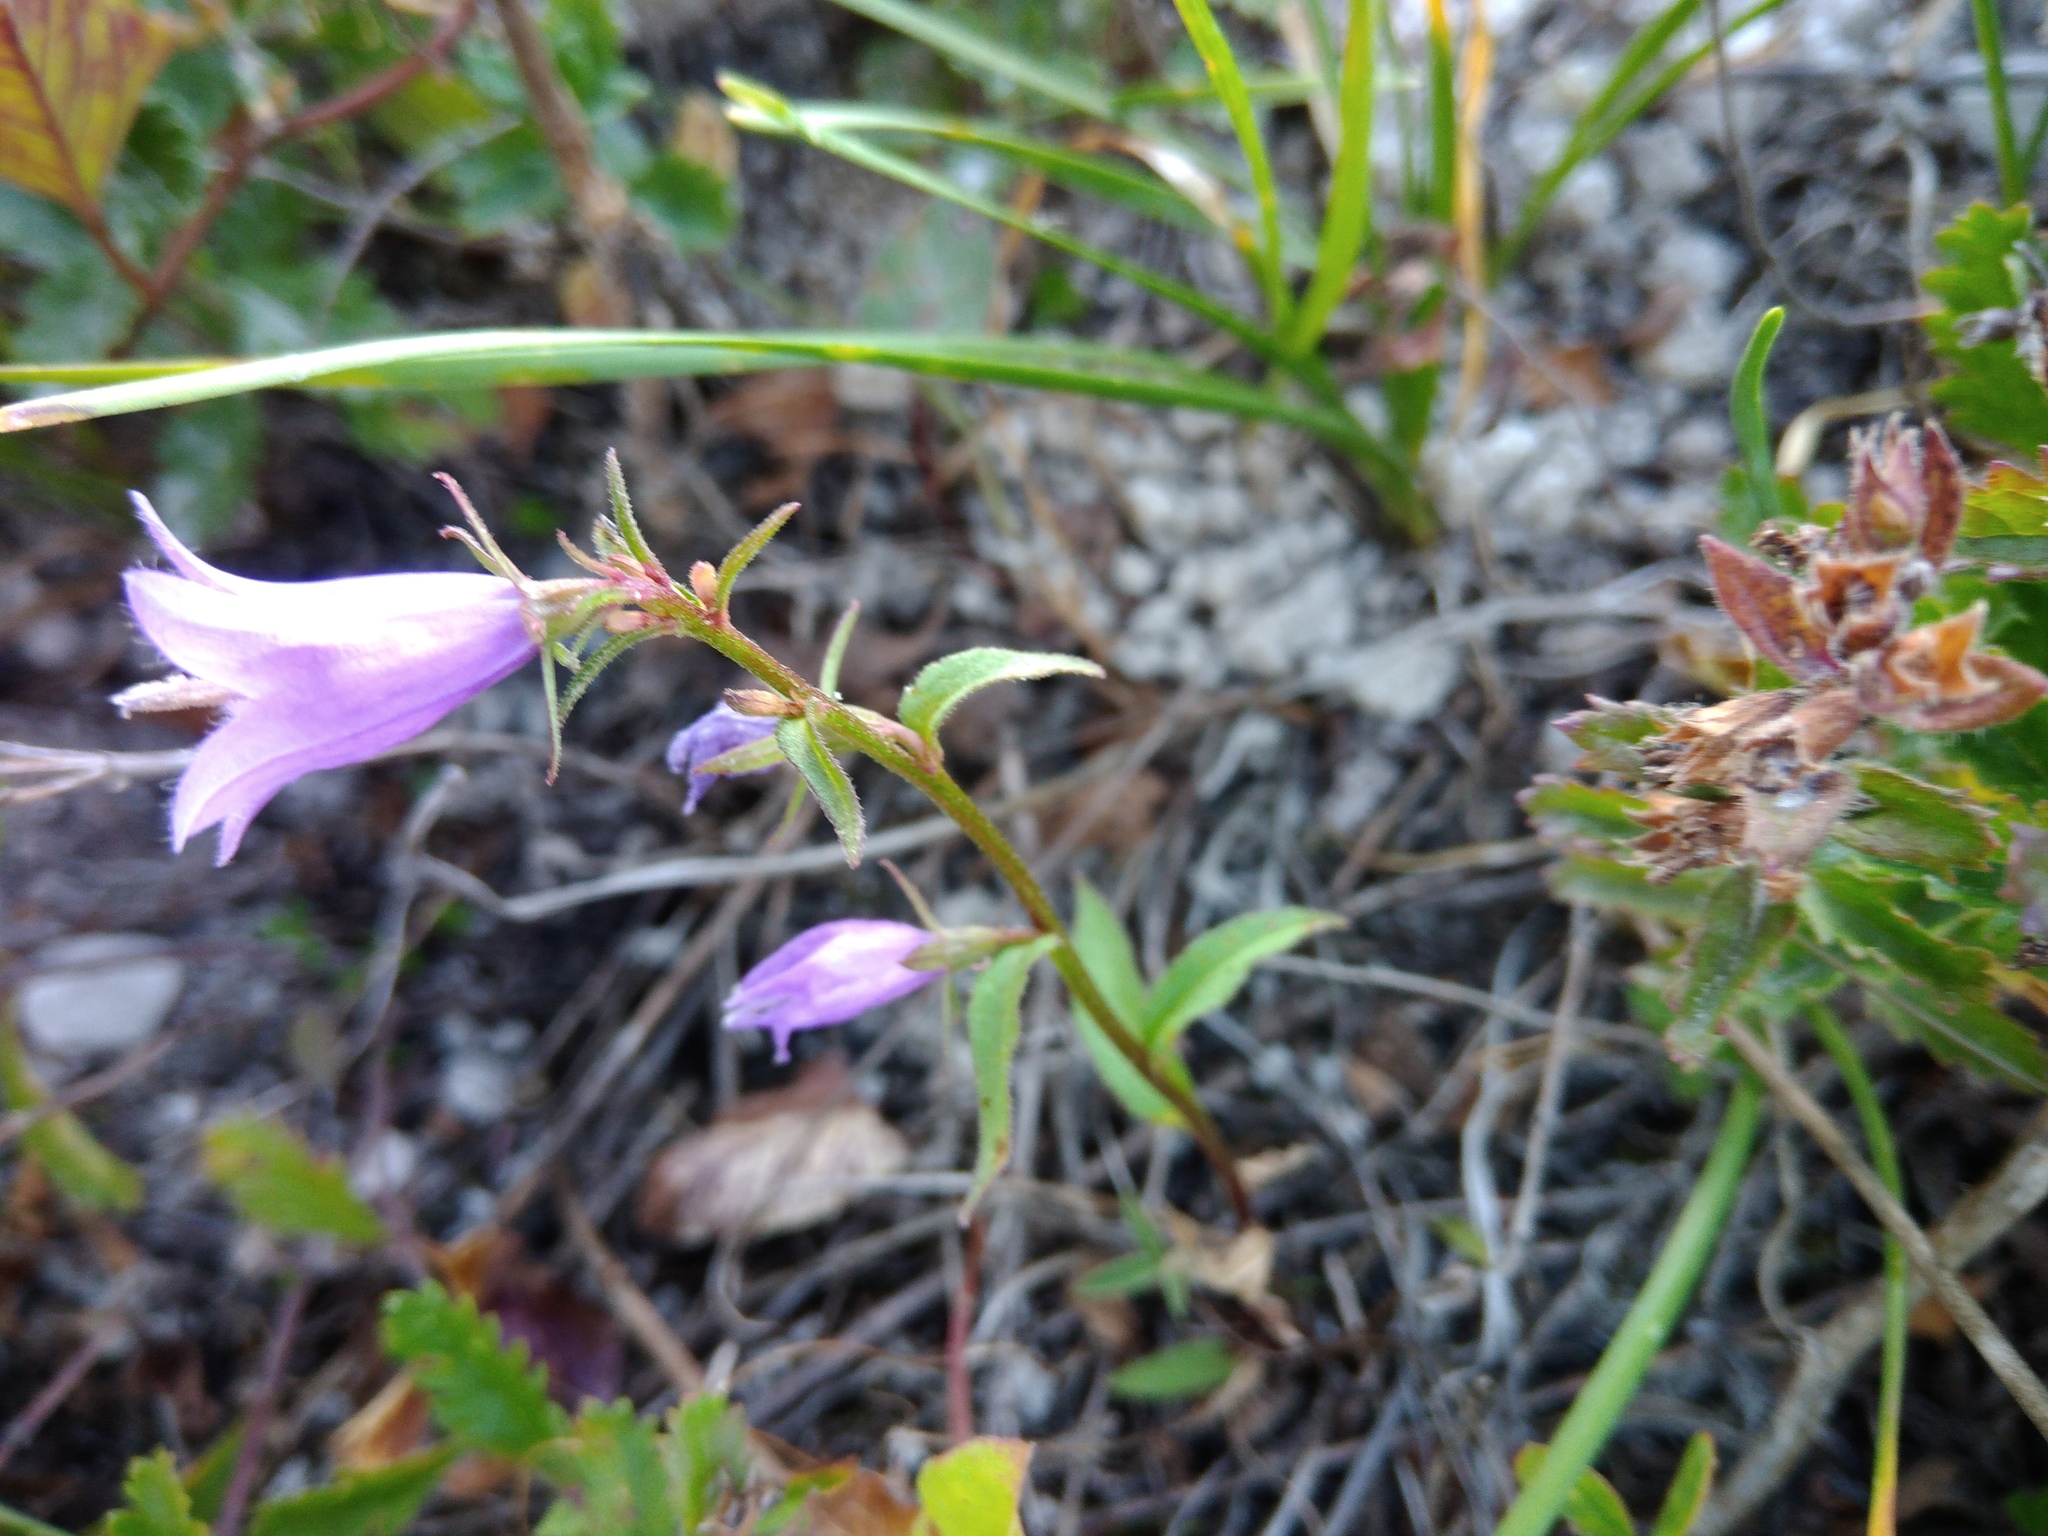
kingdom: Plantae
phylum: Tracheophyta
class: Magnoliopsida
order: Asterales
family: Campanulaceae
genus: Campanula
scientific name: Campanula sibirica
